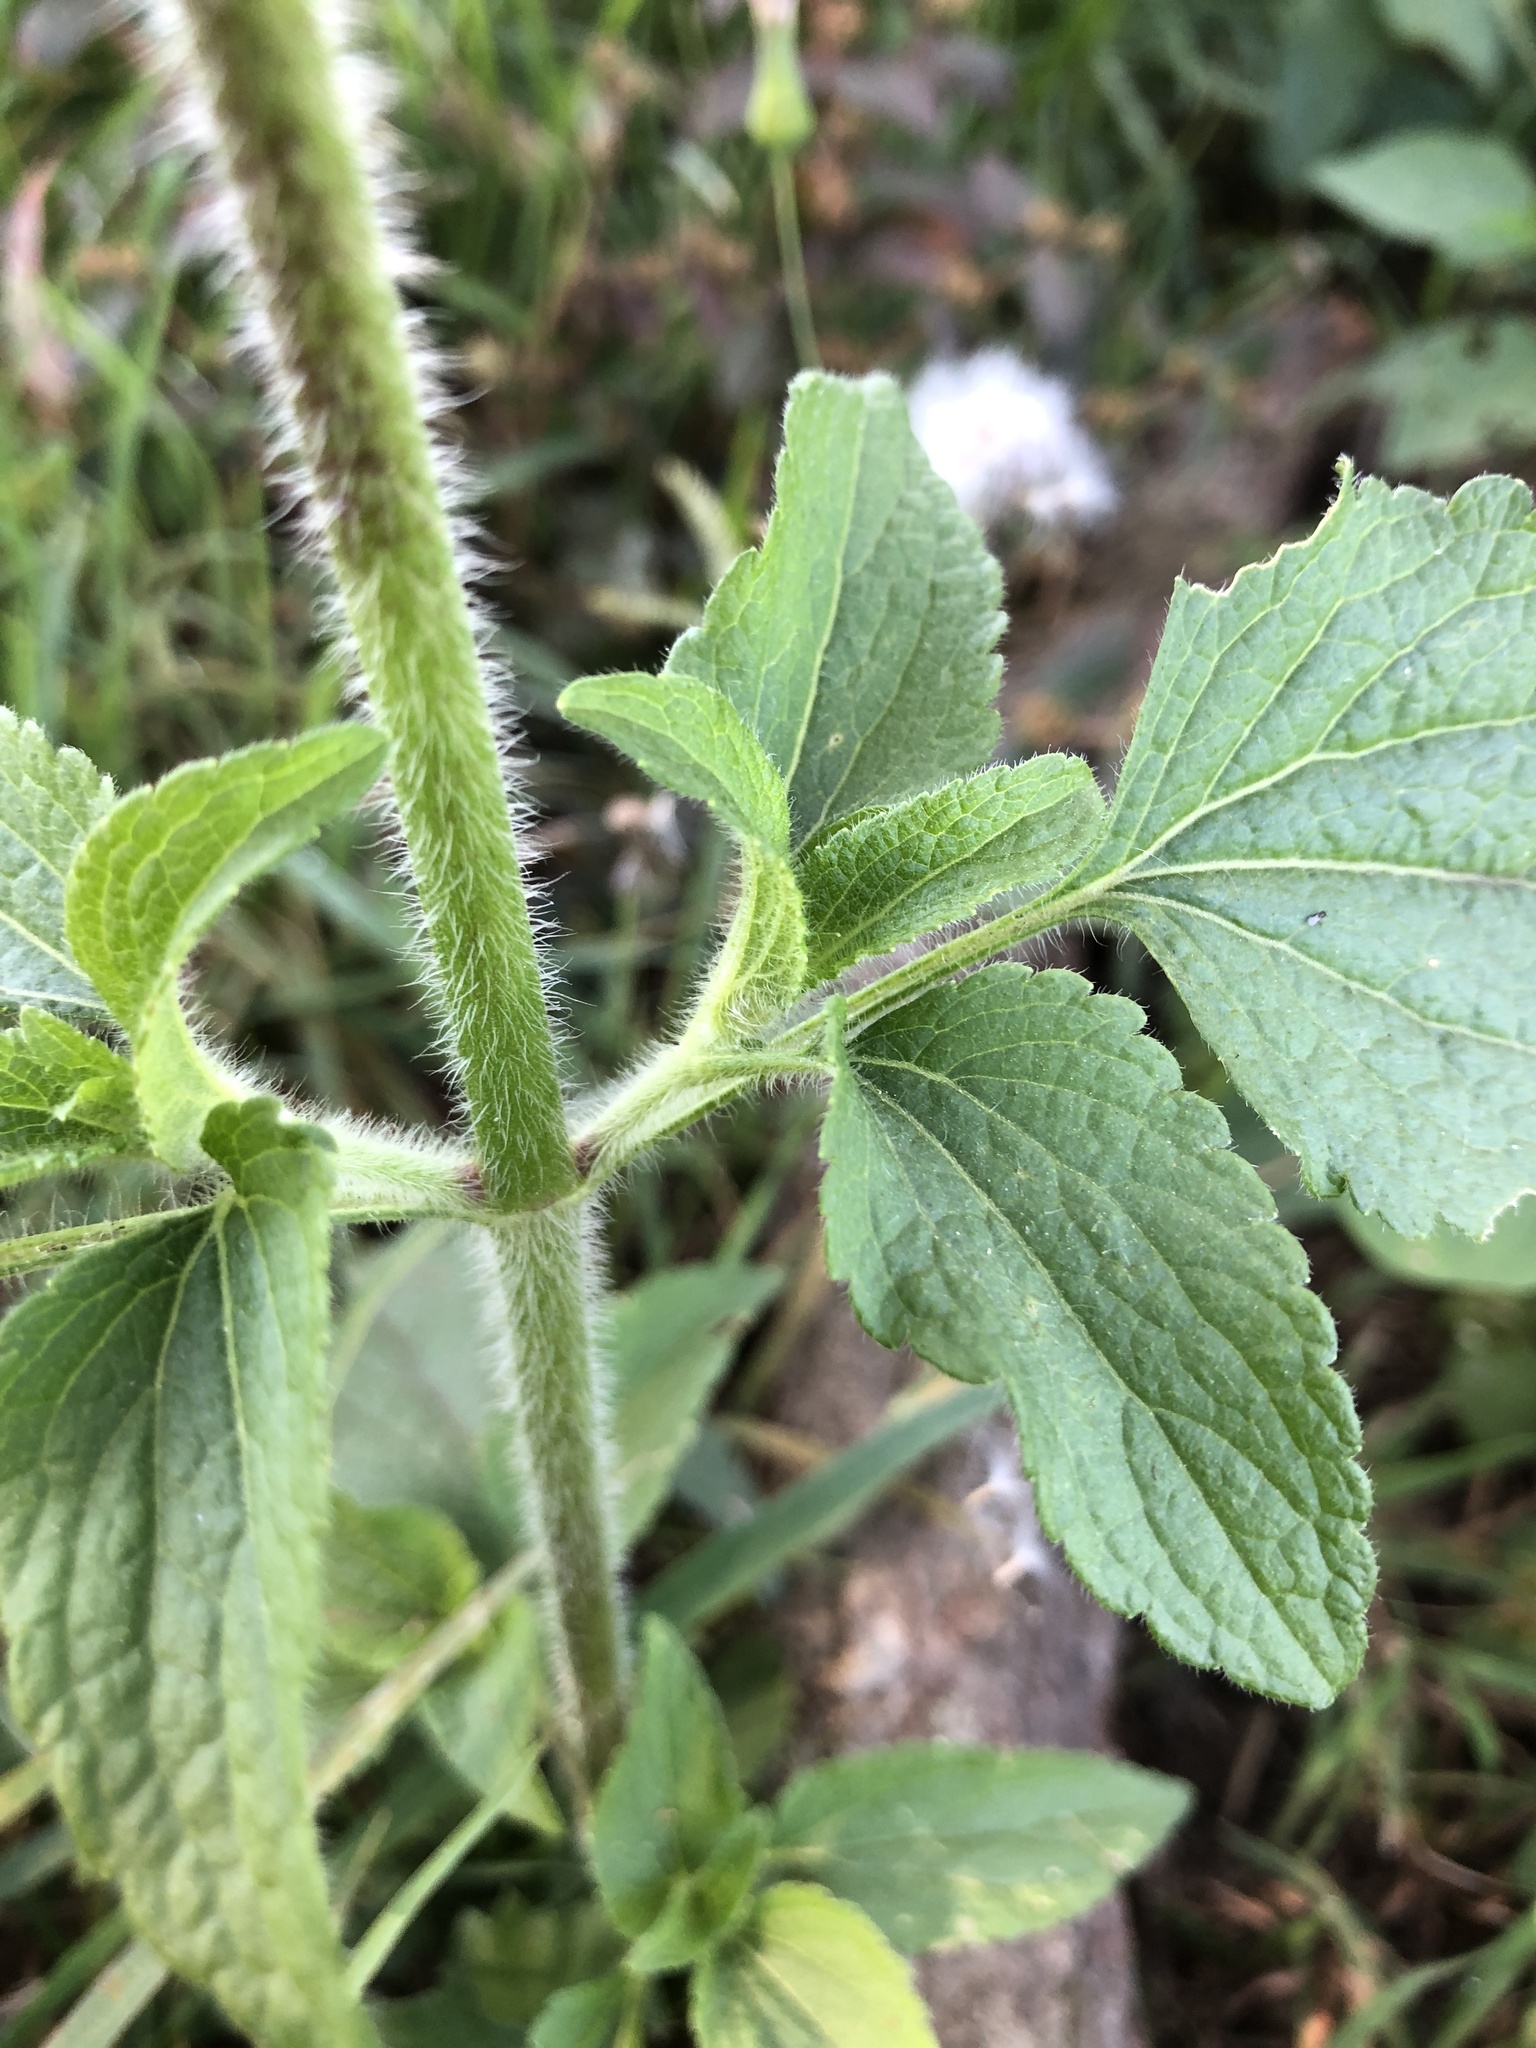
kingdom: Plantae
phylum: Tracheophyta
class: Magnoliopsida
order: Asterales
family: Asteraceae
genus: Ageratum
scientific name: Ageratum conyzoides
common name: Tropical whiteweed
